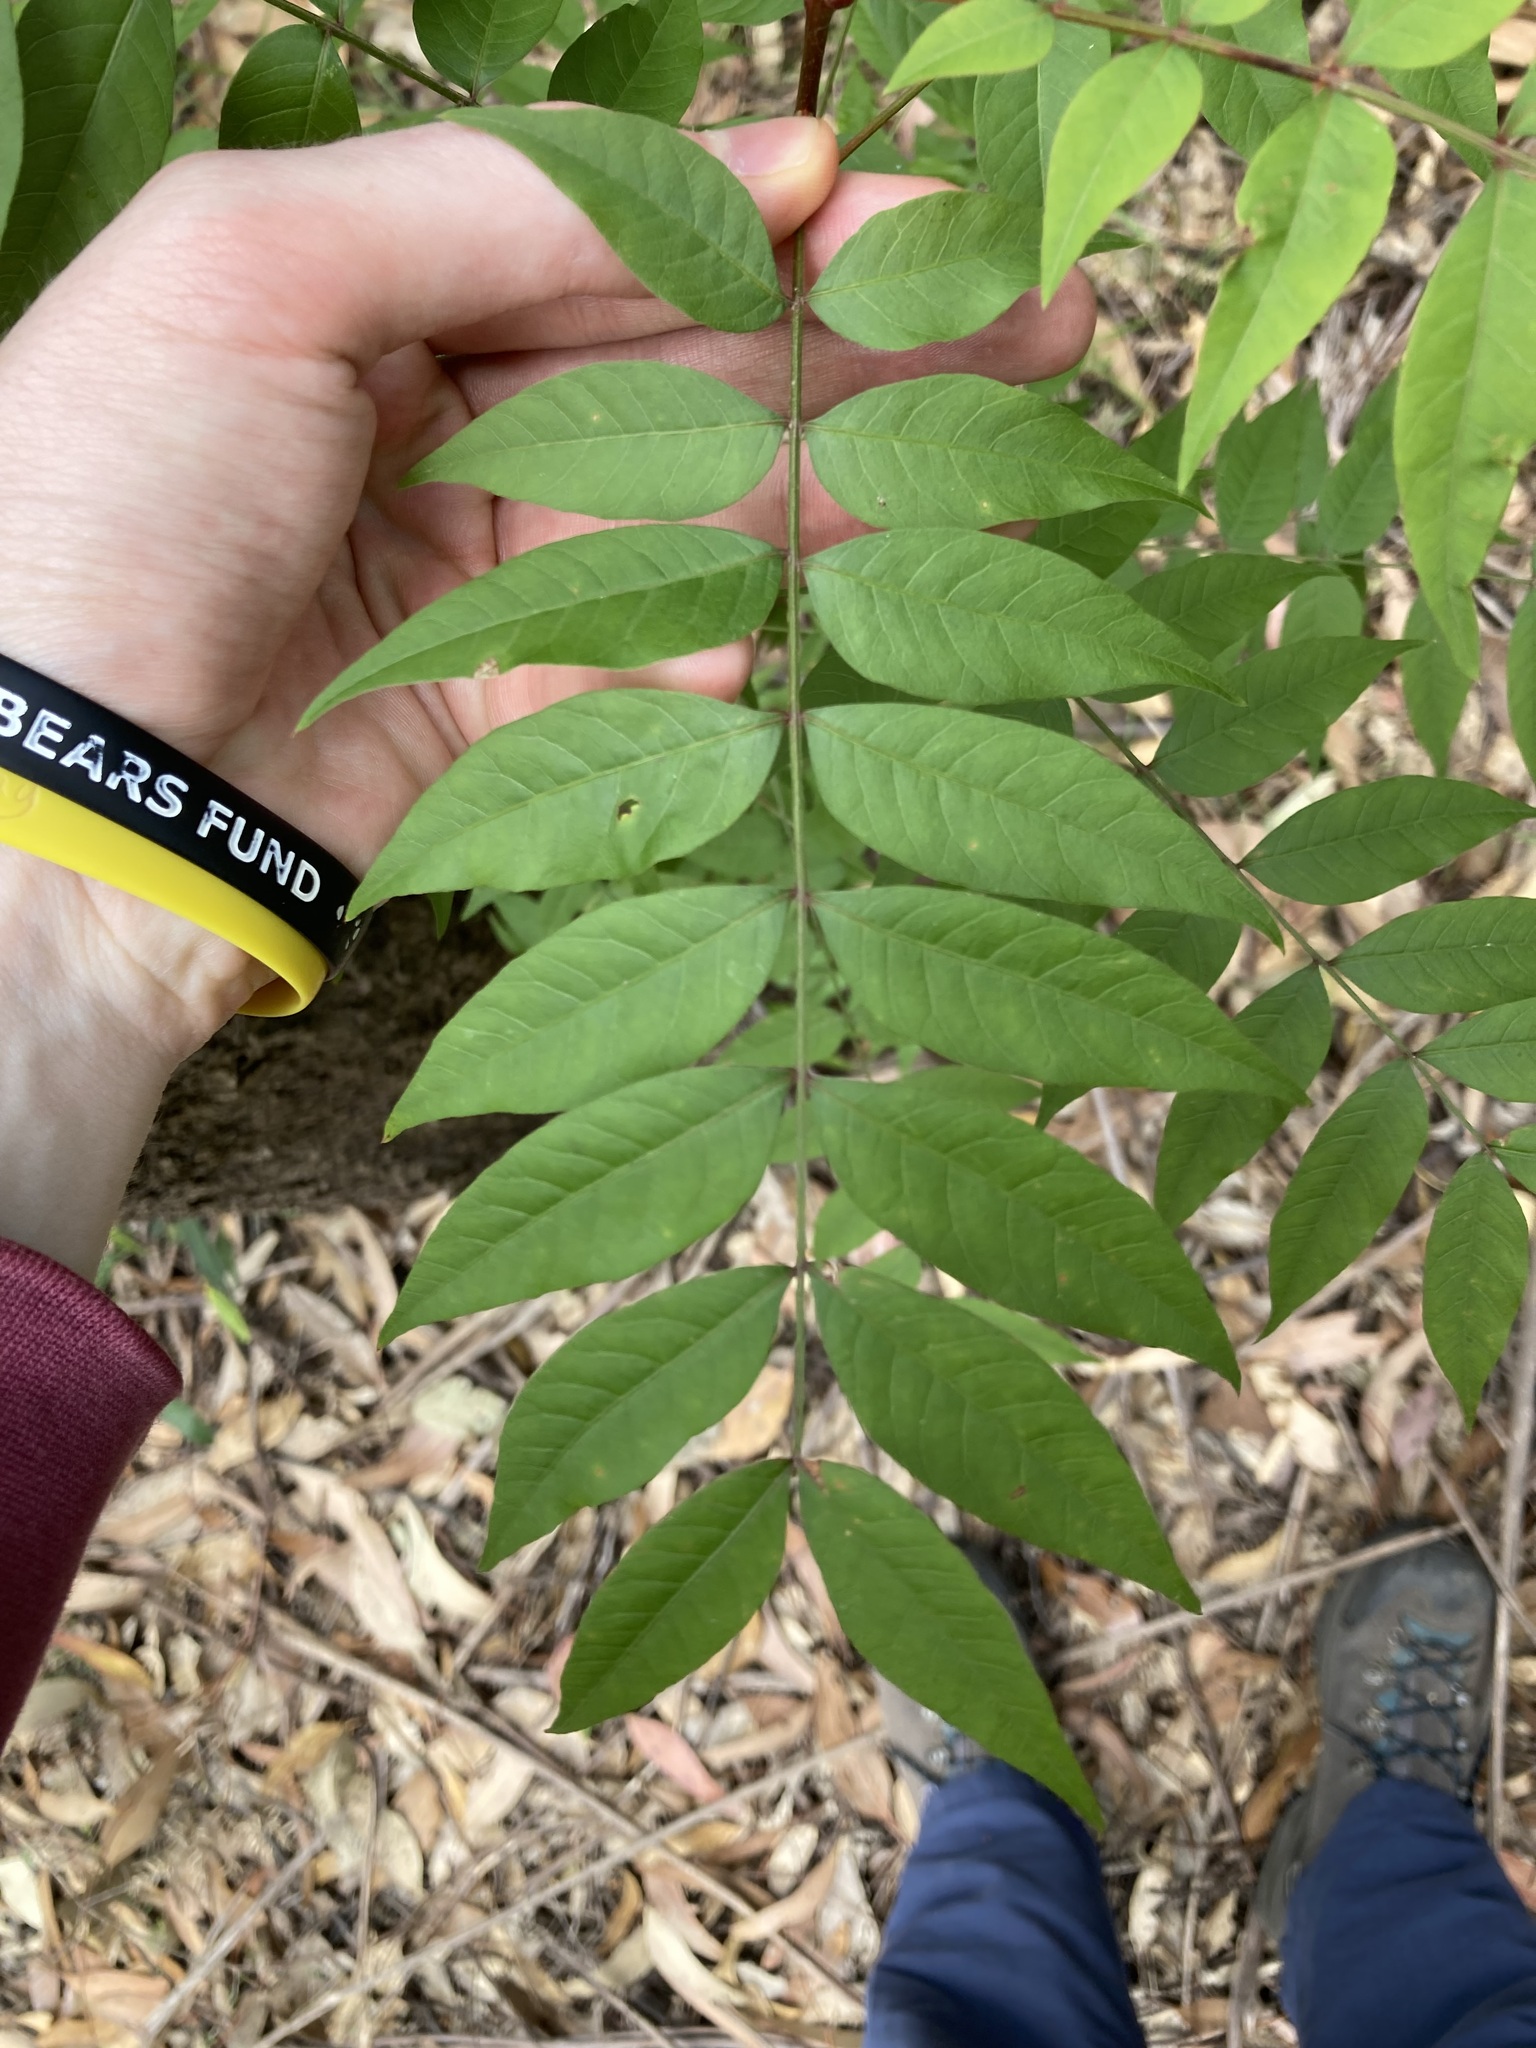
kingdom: Plantae
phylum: Tracheophyta
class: Magnoliopsida
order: Sapindales
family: Anacardiaceae
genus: Pistacia
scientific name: Pistacia chinensis
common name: Chinese pistache
